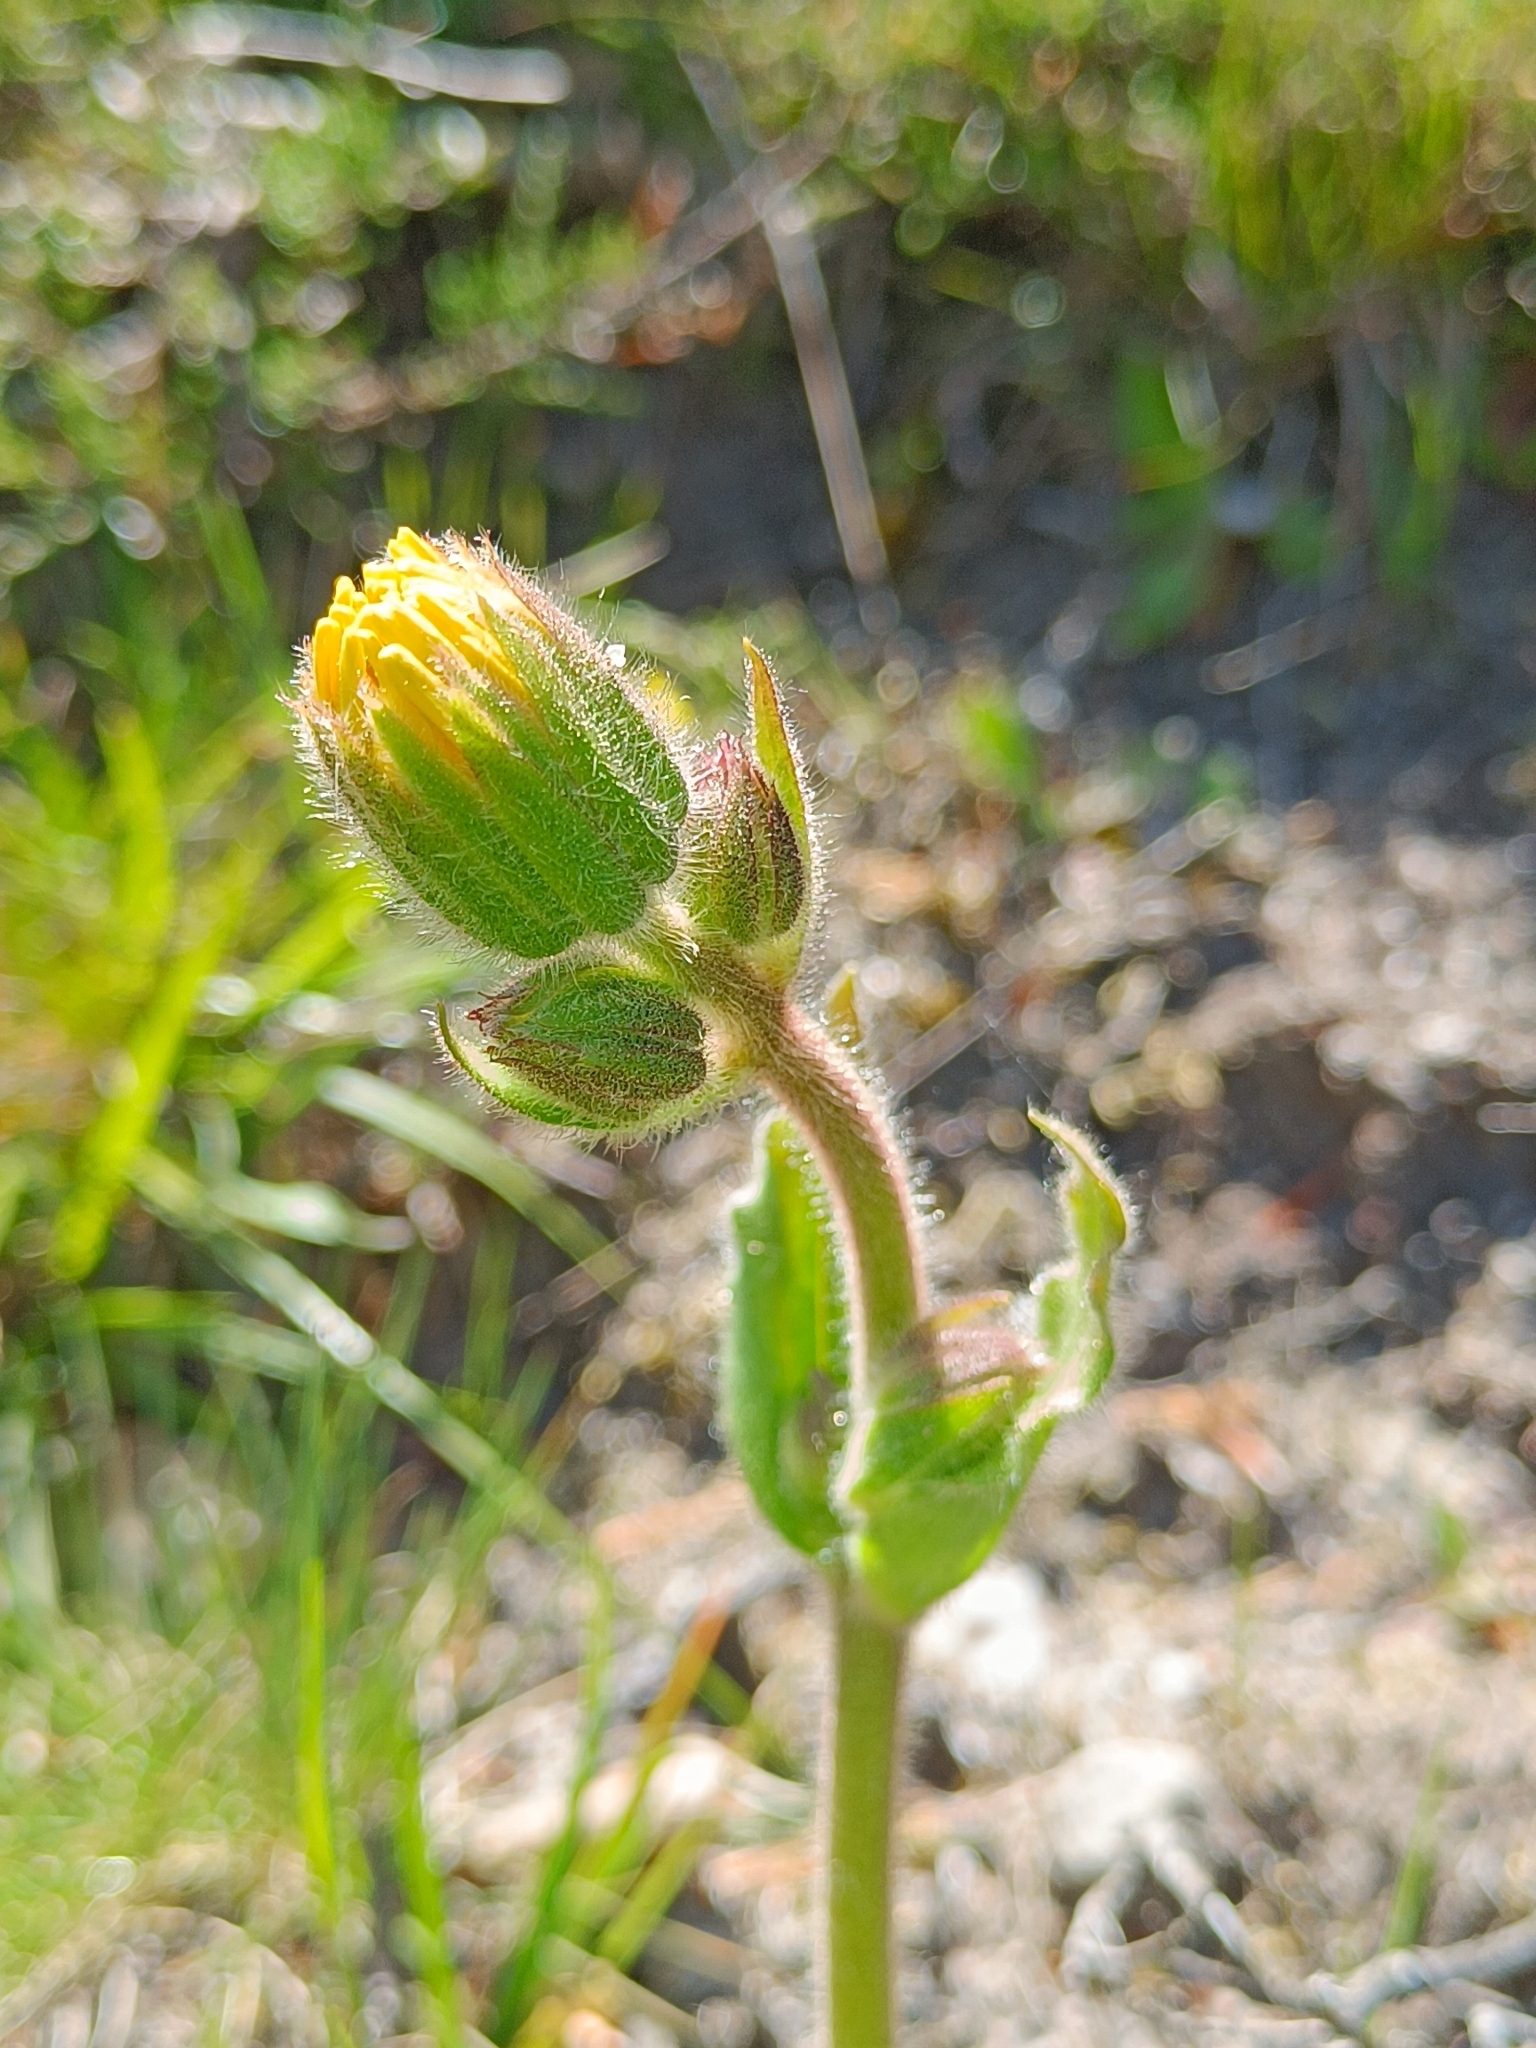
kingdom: Plantae
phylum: Tracheophyta
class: Magnoliopsida
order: Asterales
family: Asteraceae
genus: Arnica
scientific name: Arnica montana
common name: Leopard's bane
